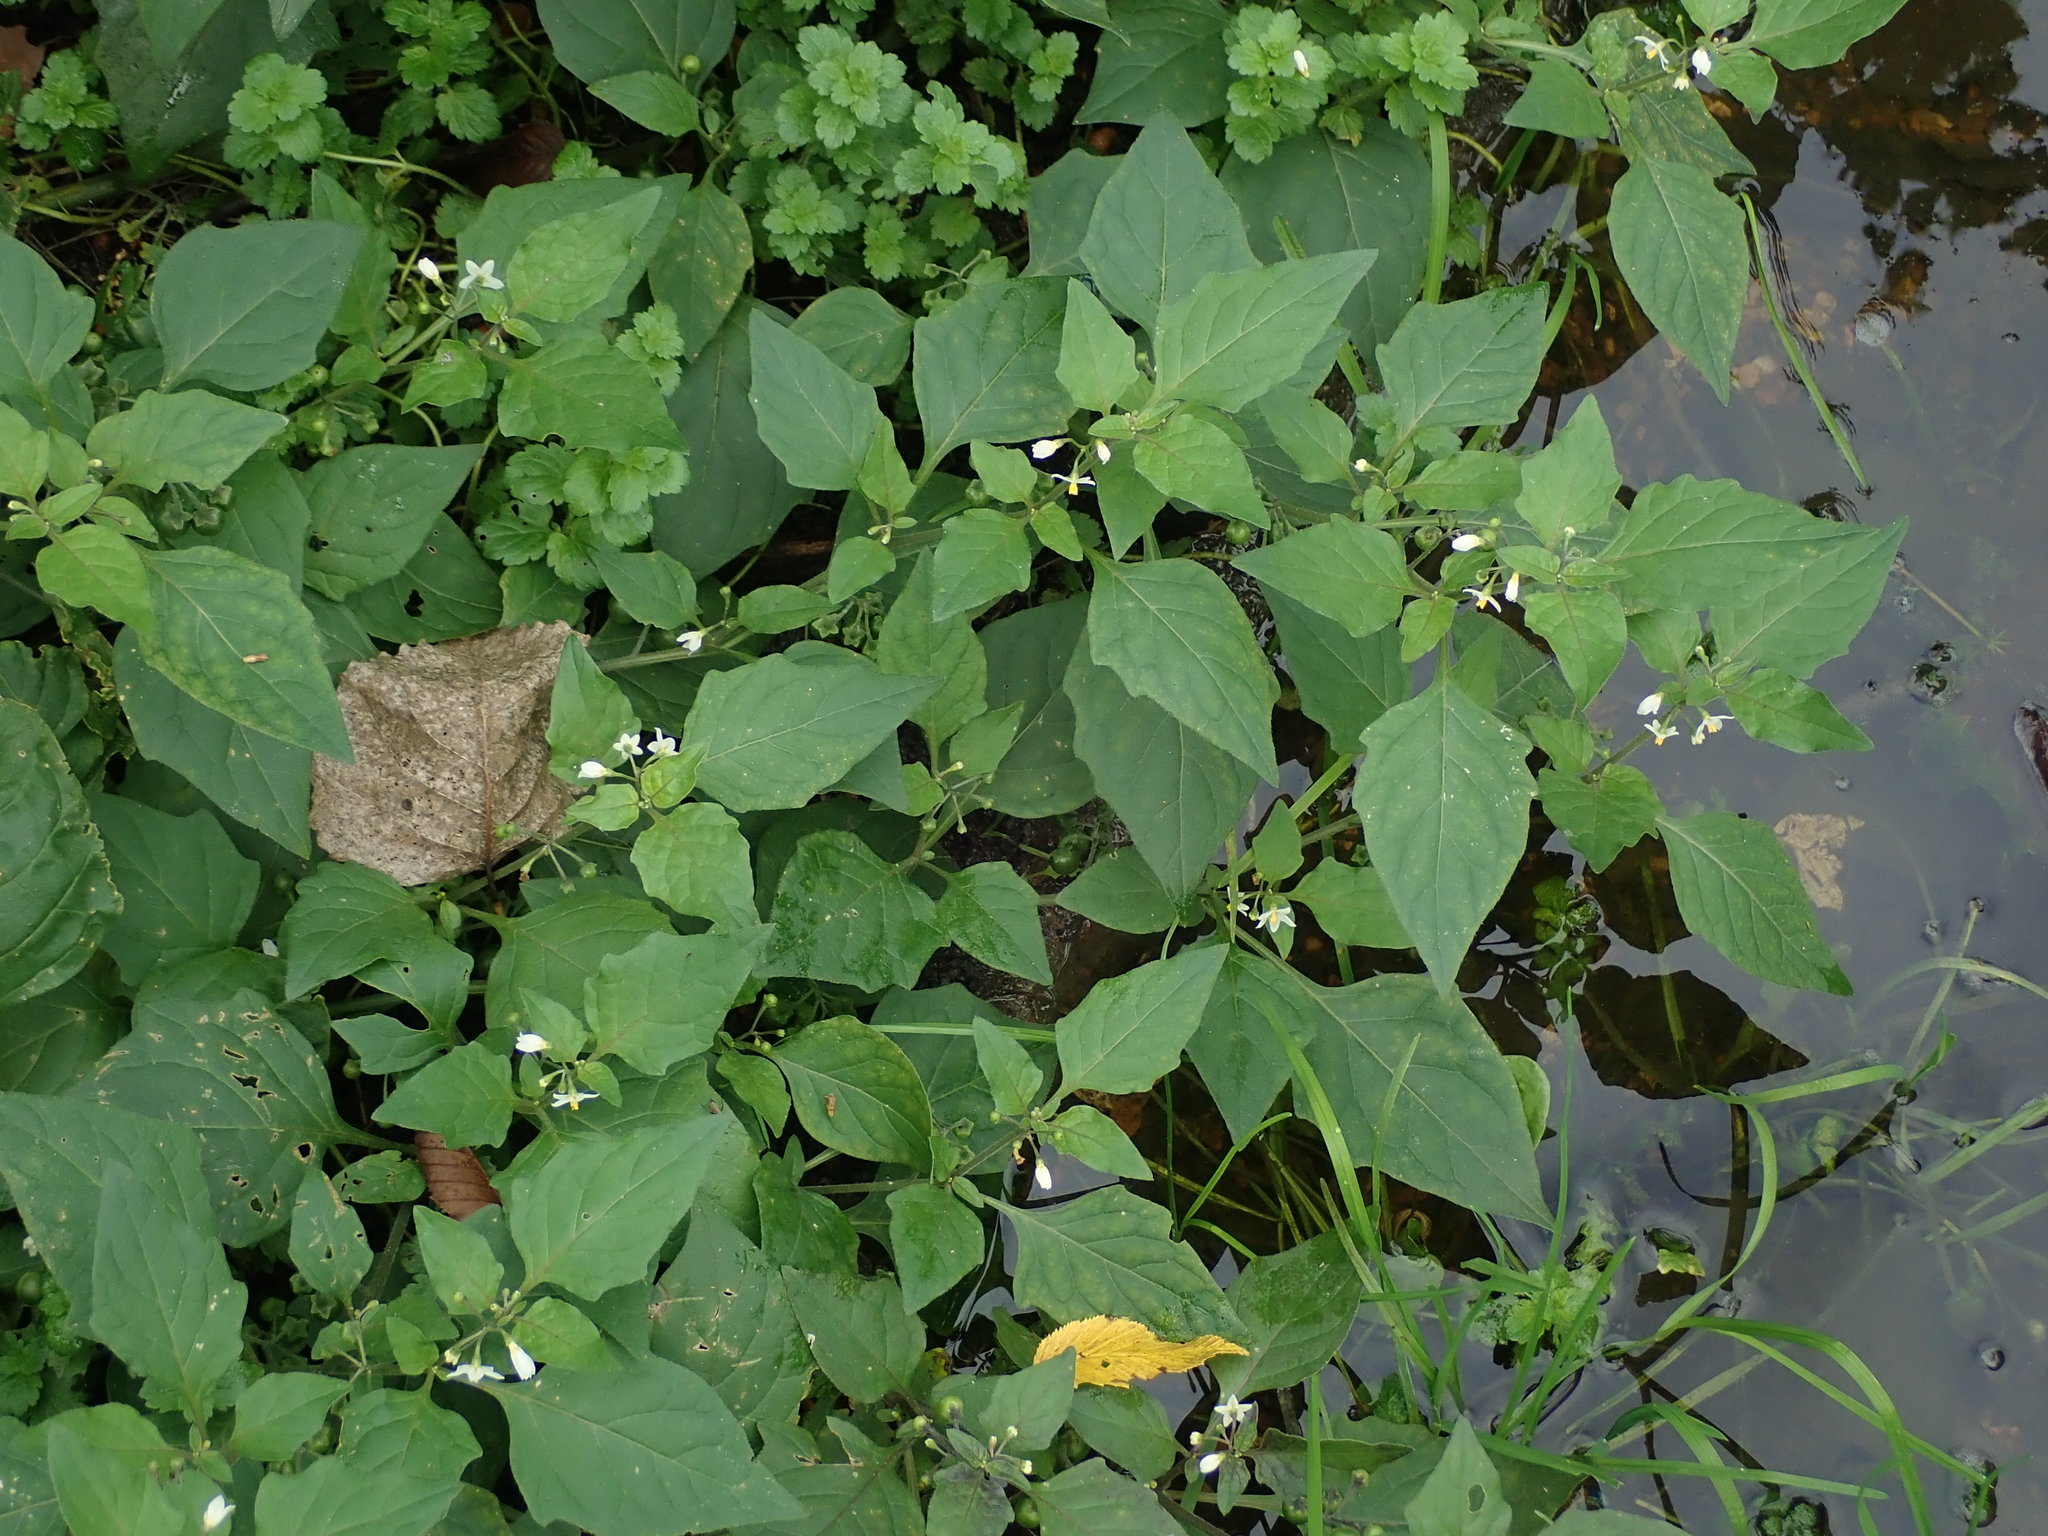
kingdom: Plantae
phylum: Tracheophyta
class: Magnoliopsida
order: Solanales
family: Solanaceae
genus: Solanum
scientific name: Solanum nigrum
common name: Black nightshade
